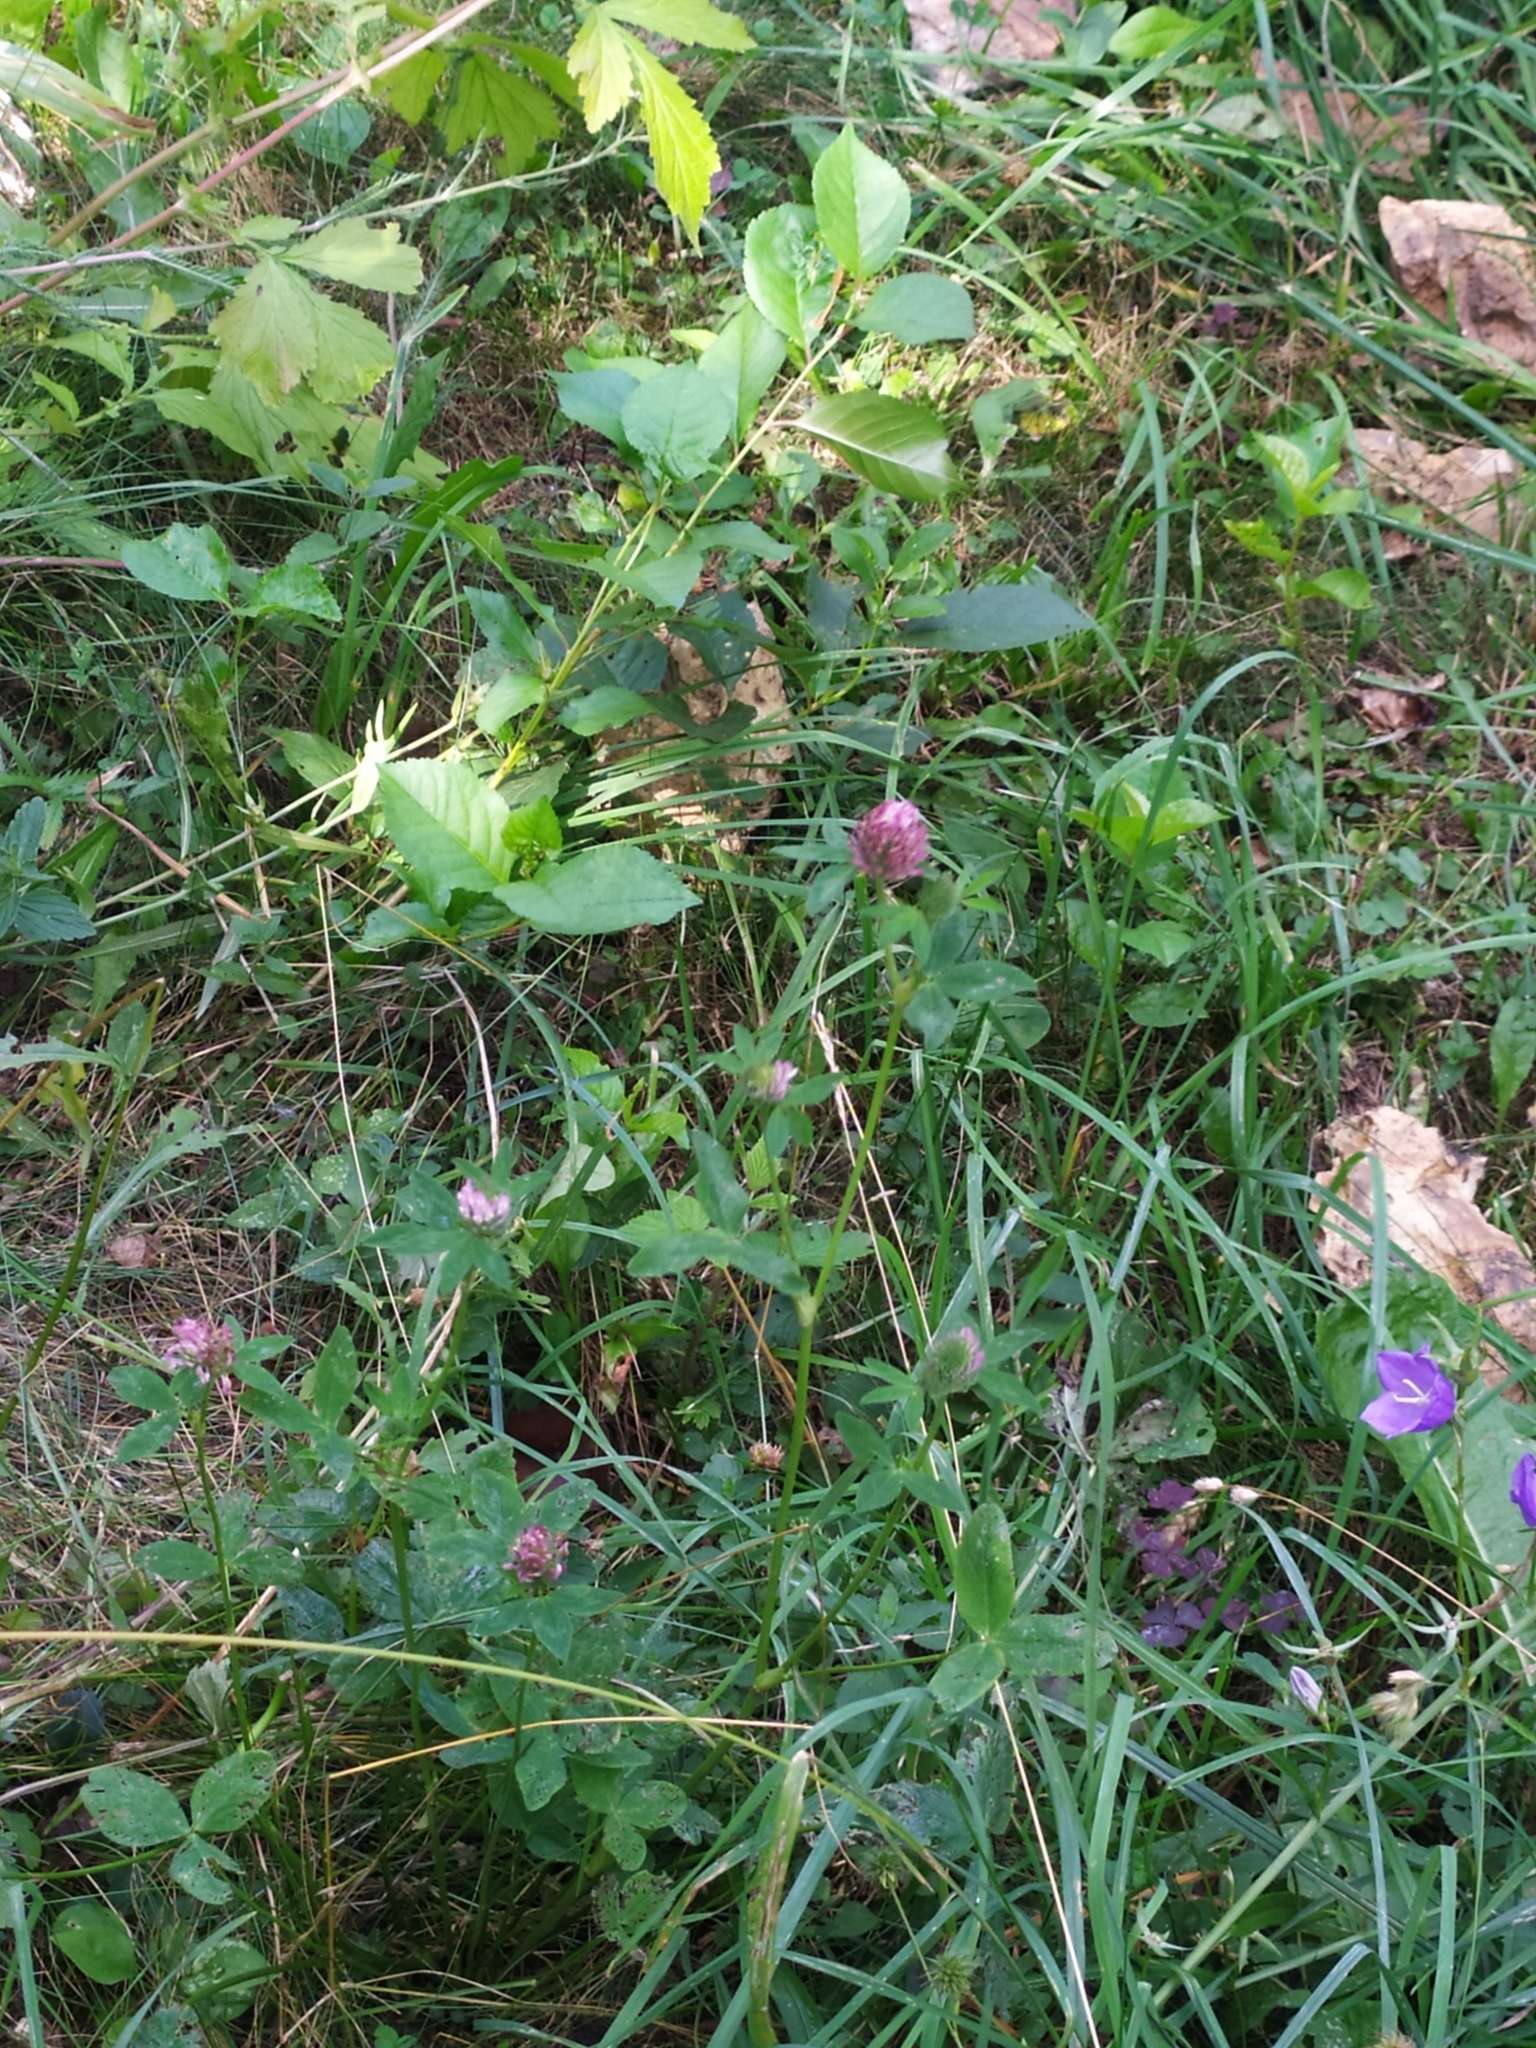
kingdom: Plantae
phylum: Tracheophyta
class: Magnoliopsida
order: Fabales
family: Fabaceae
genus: Trifolium
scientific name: Trifolium pratense
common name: Red clover
